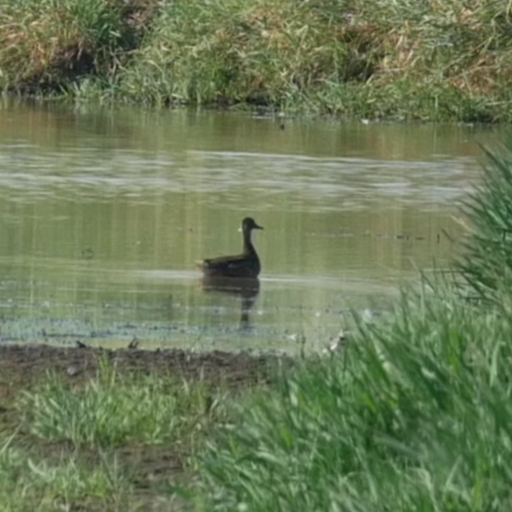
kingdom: Animalia
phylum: Chordata
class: Aves
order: Anseriformes
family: Anatidae
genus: Anas
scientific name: Anas platyrhynchos
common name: Mallard
